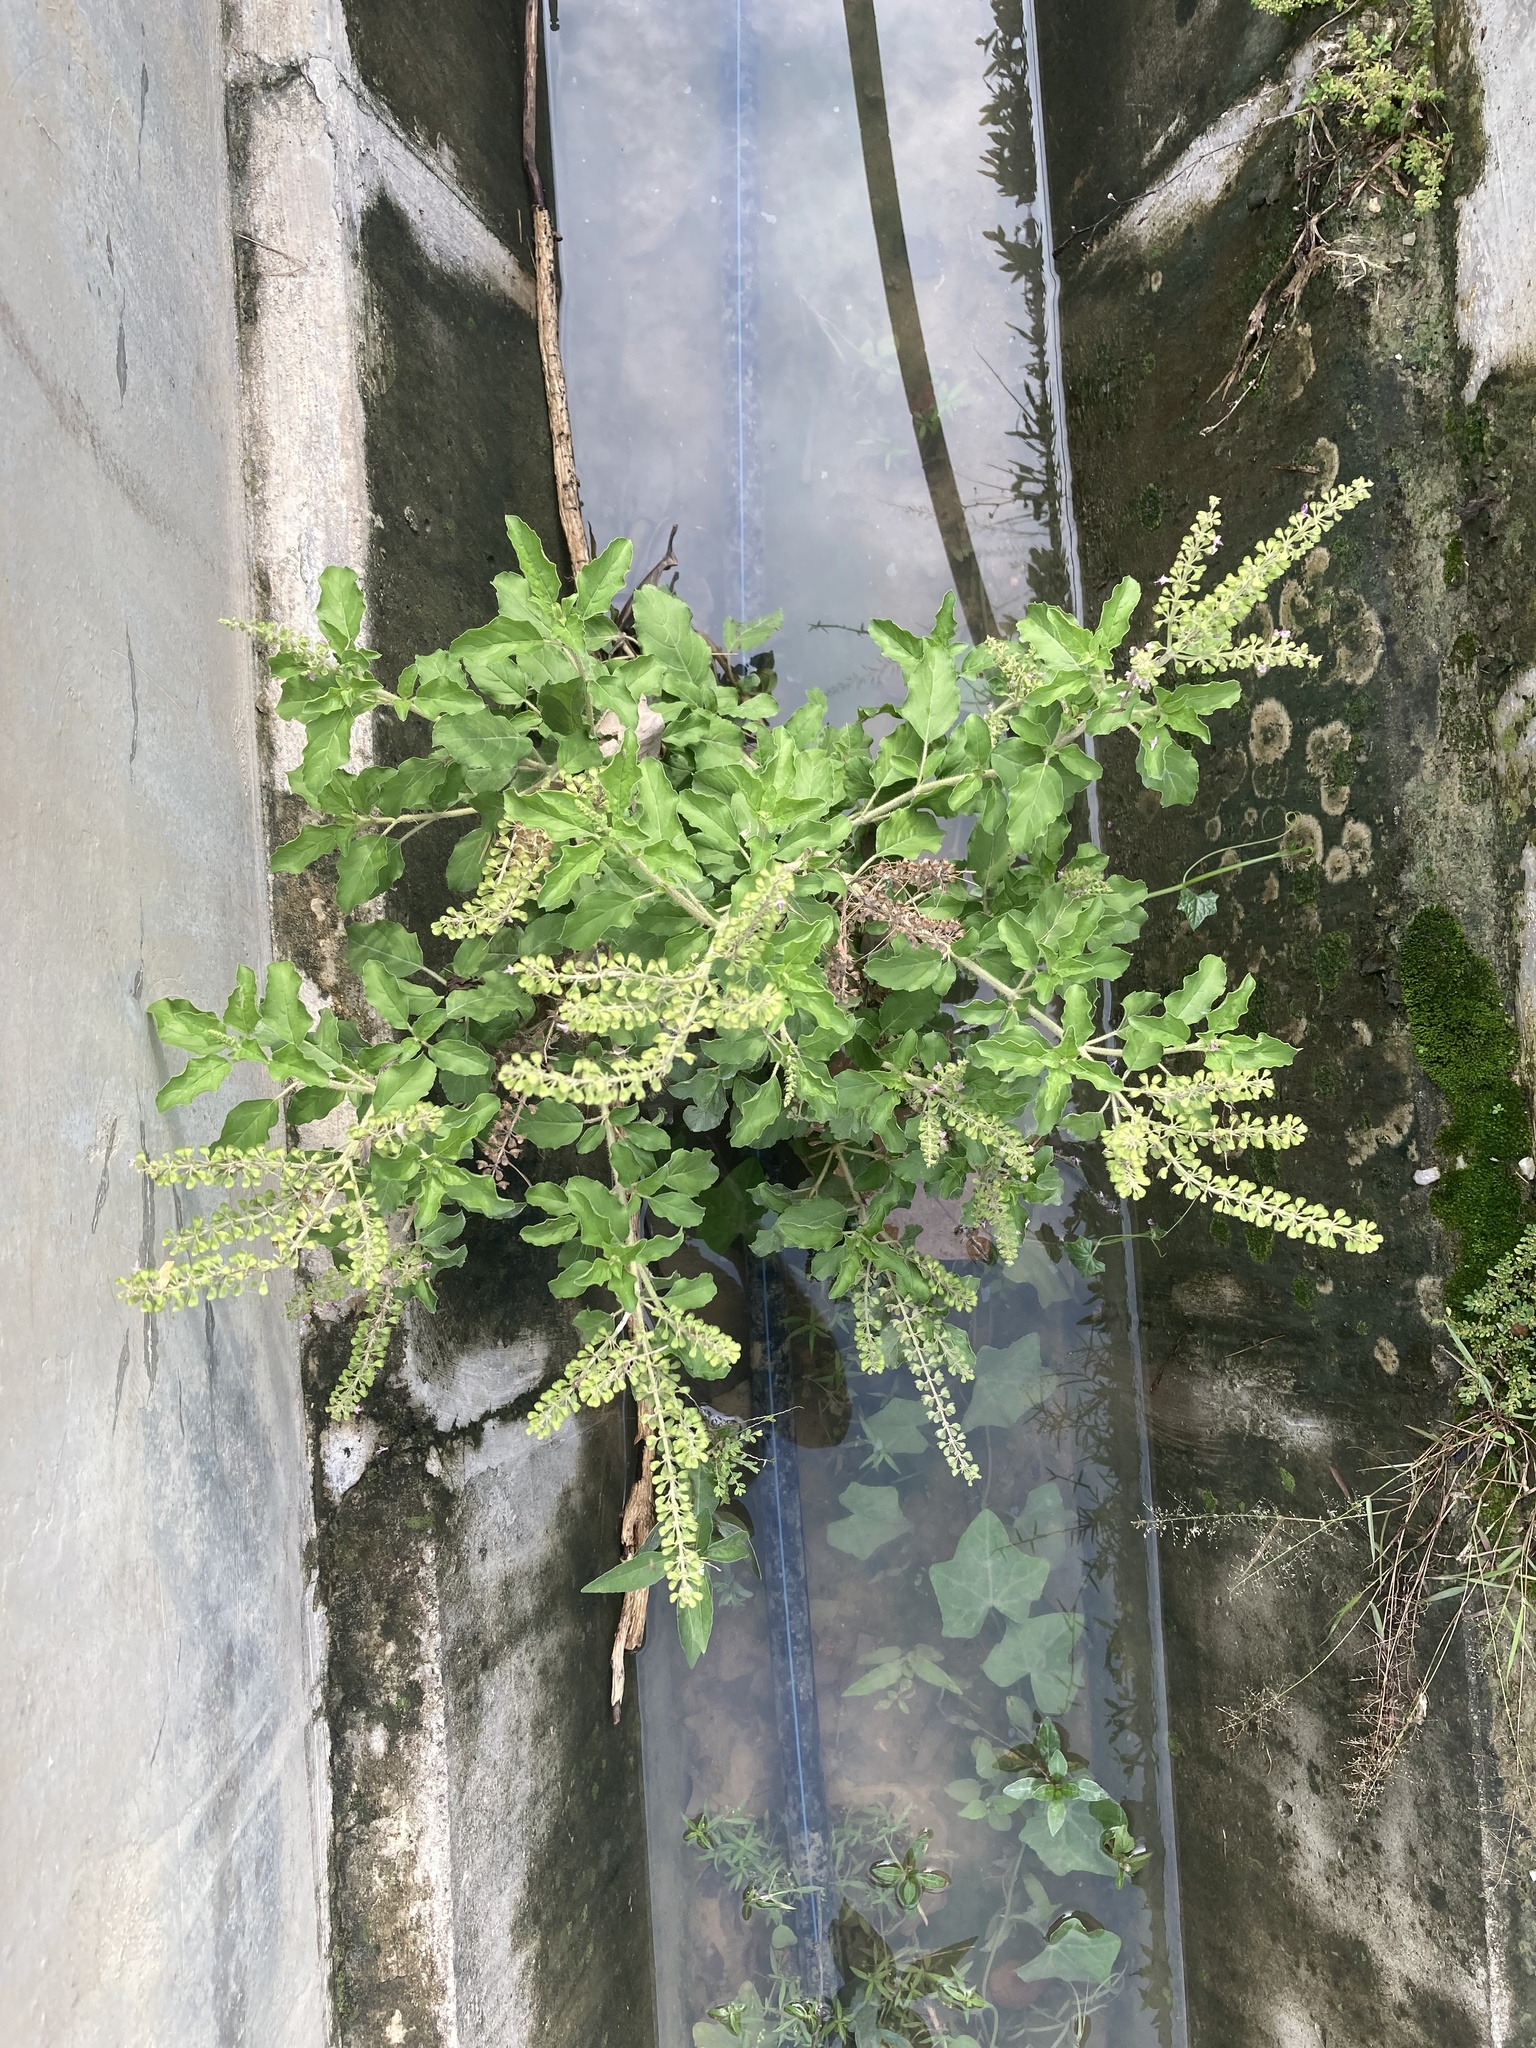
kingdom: Plantae
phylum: Tracheophyta
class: Magnoliopsida
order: Lamiales
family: Lamiaceae
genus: Ocimum
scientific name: Ocimum tenuiflorum
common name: Sacred basil
